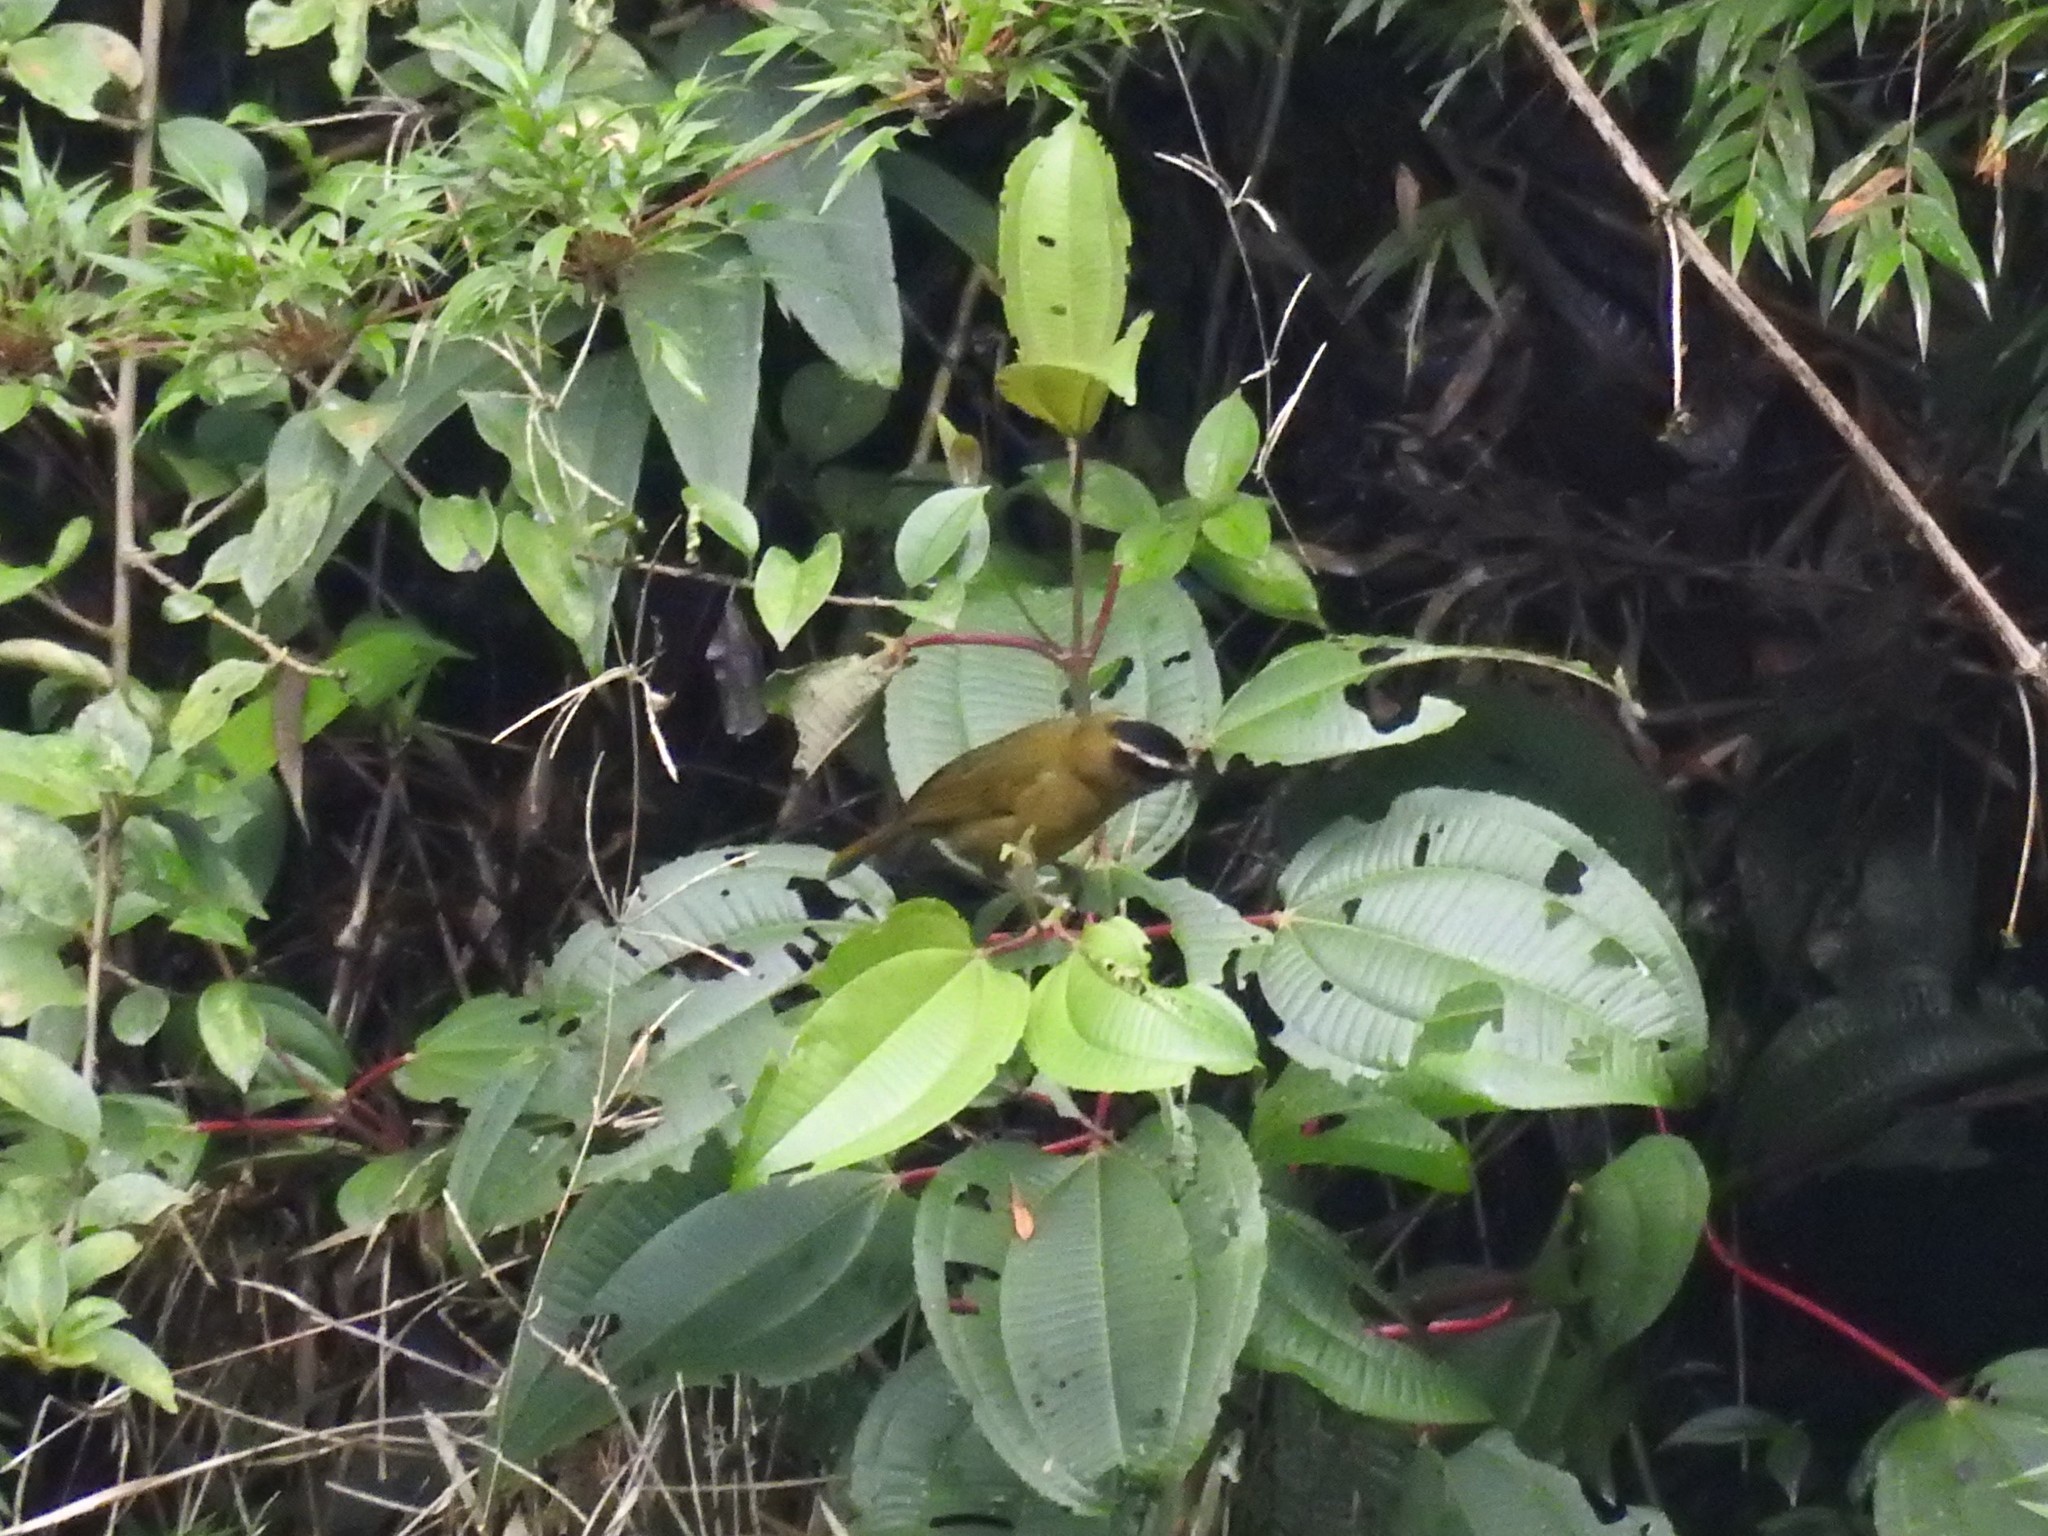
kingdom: Animalia
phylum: Chordata
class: Aves
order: Passeriformes
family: Thraupidae
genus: Kleinothraupis
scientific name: Kleinothraupis atropileus
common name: Black-capped hemispingus
